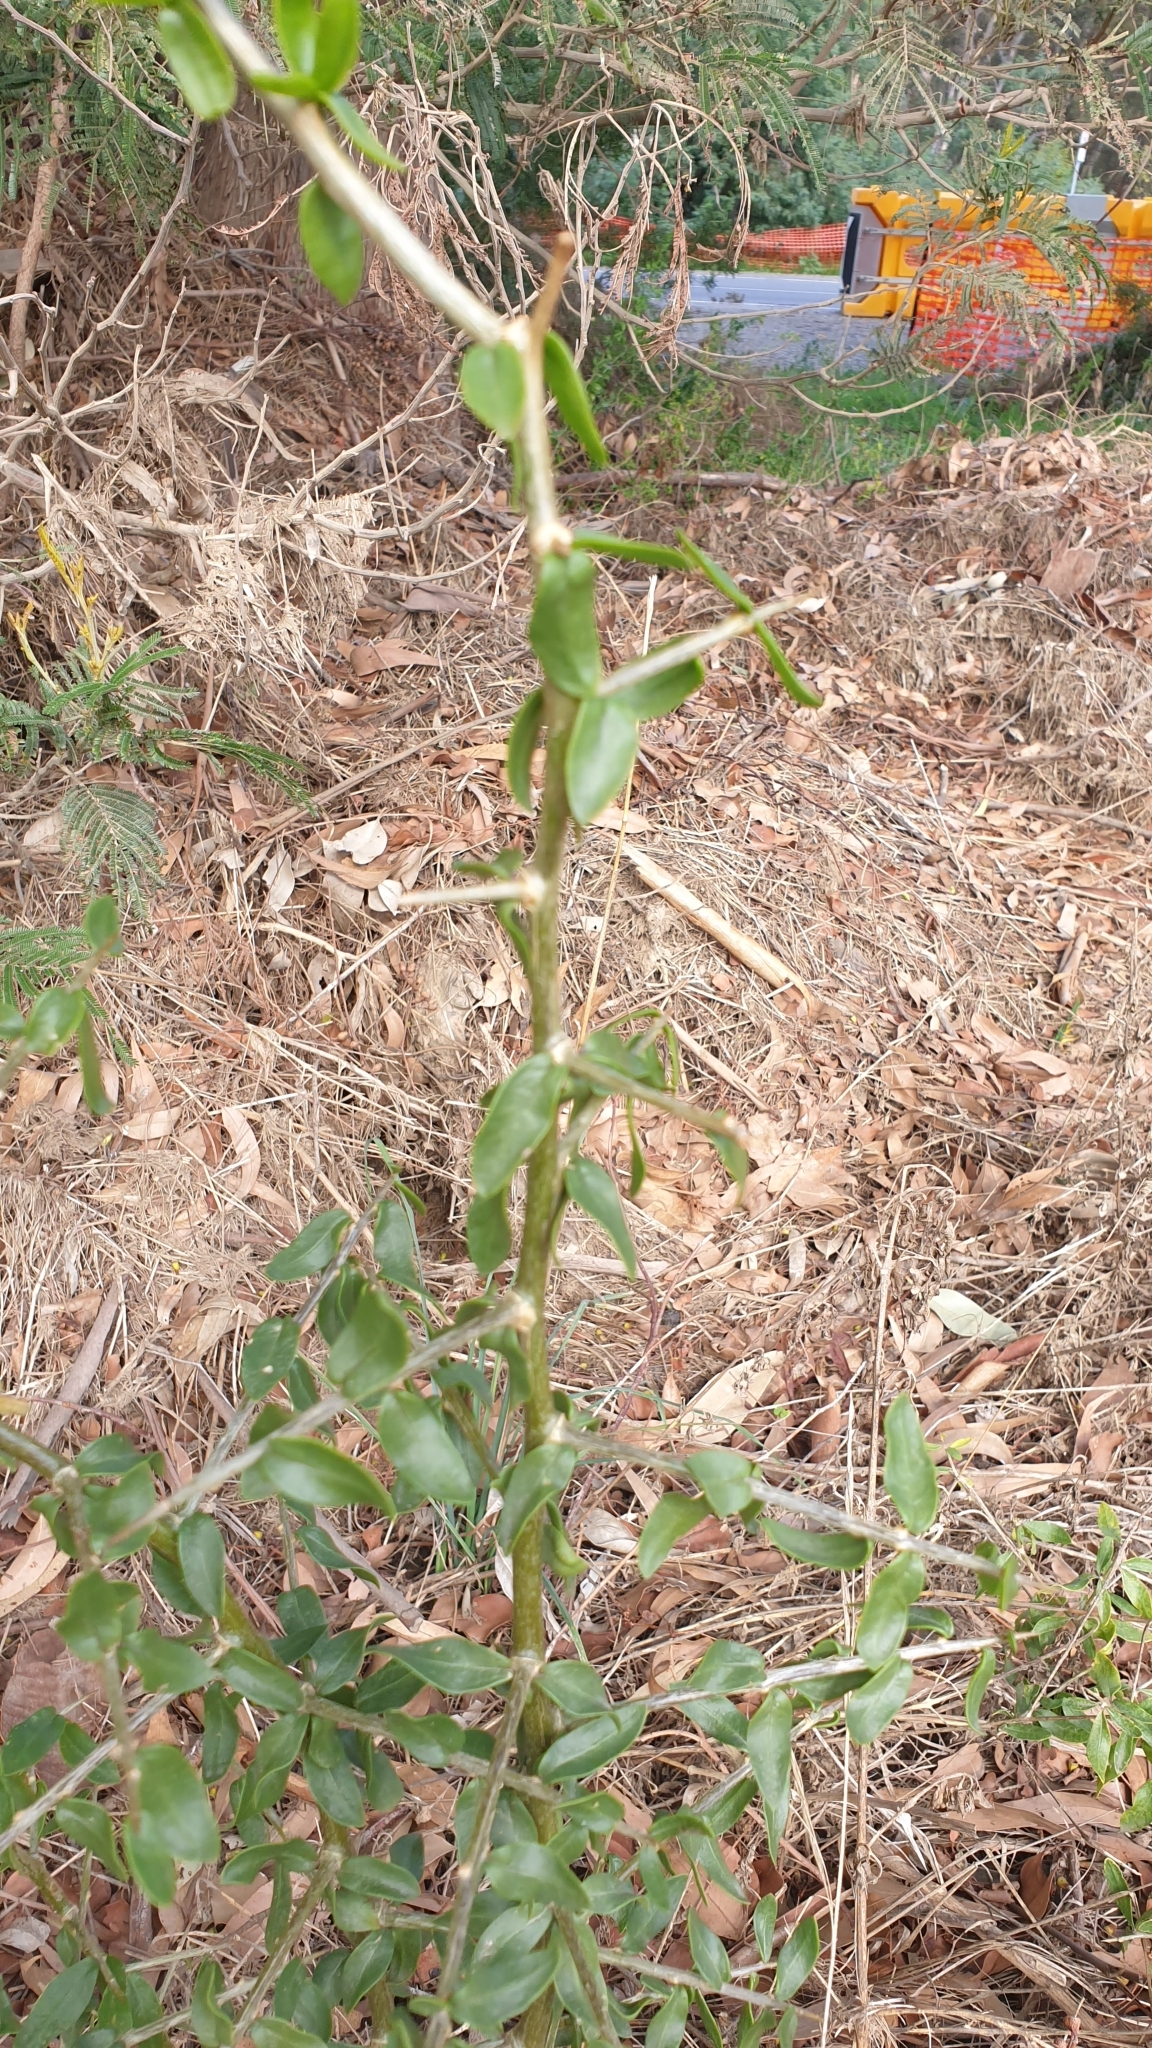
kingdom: Plantae
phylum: Tracheophyta
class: Magnoliopsida
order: Solanales
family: Solanaceae
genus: Lycium
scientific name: Lycium ferocissimum
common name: African boxthorn
